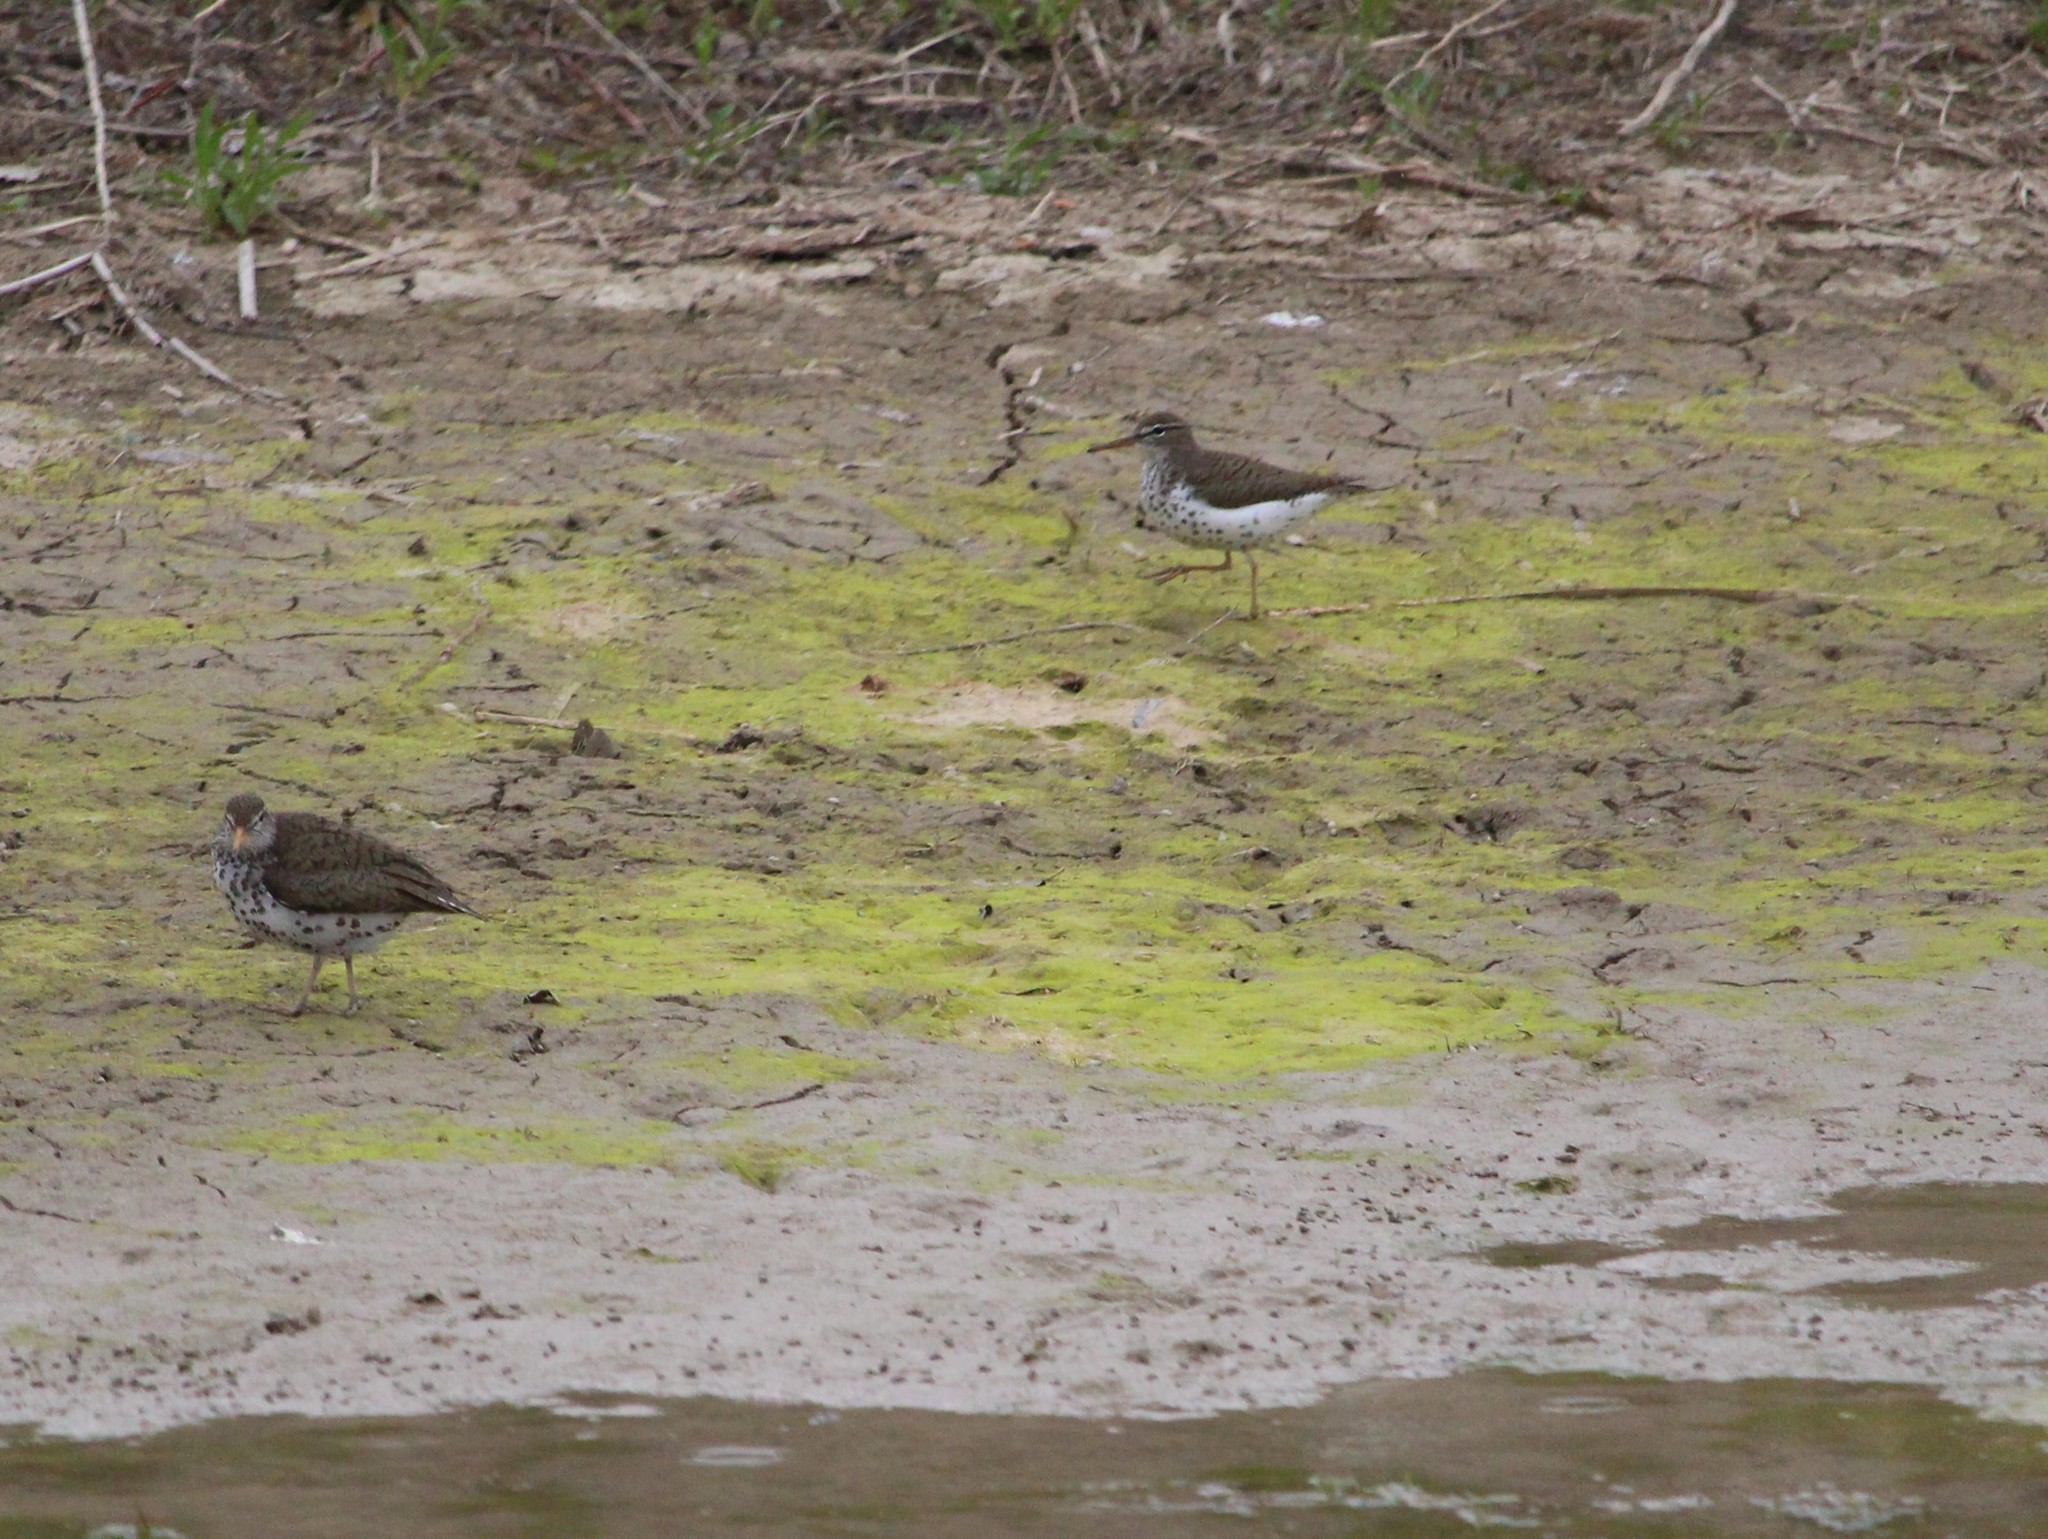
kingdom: Animalia
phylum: Chordata
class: Aves
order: Charadriiformes
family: Scolopacidae
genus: Actitis
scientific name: Actitis macularius
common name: Spotted sandpiper
